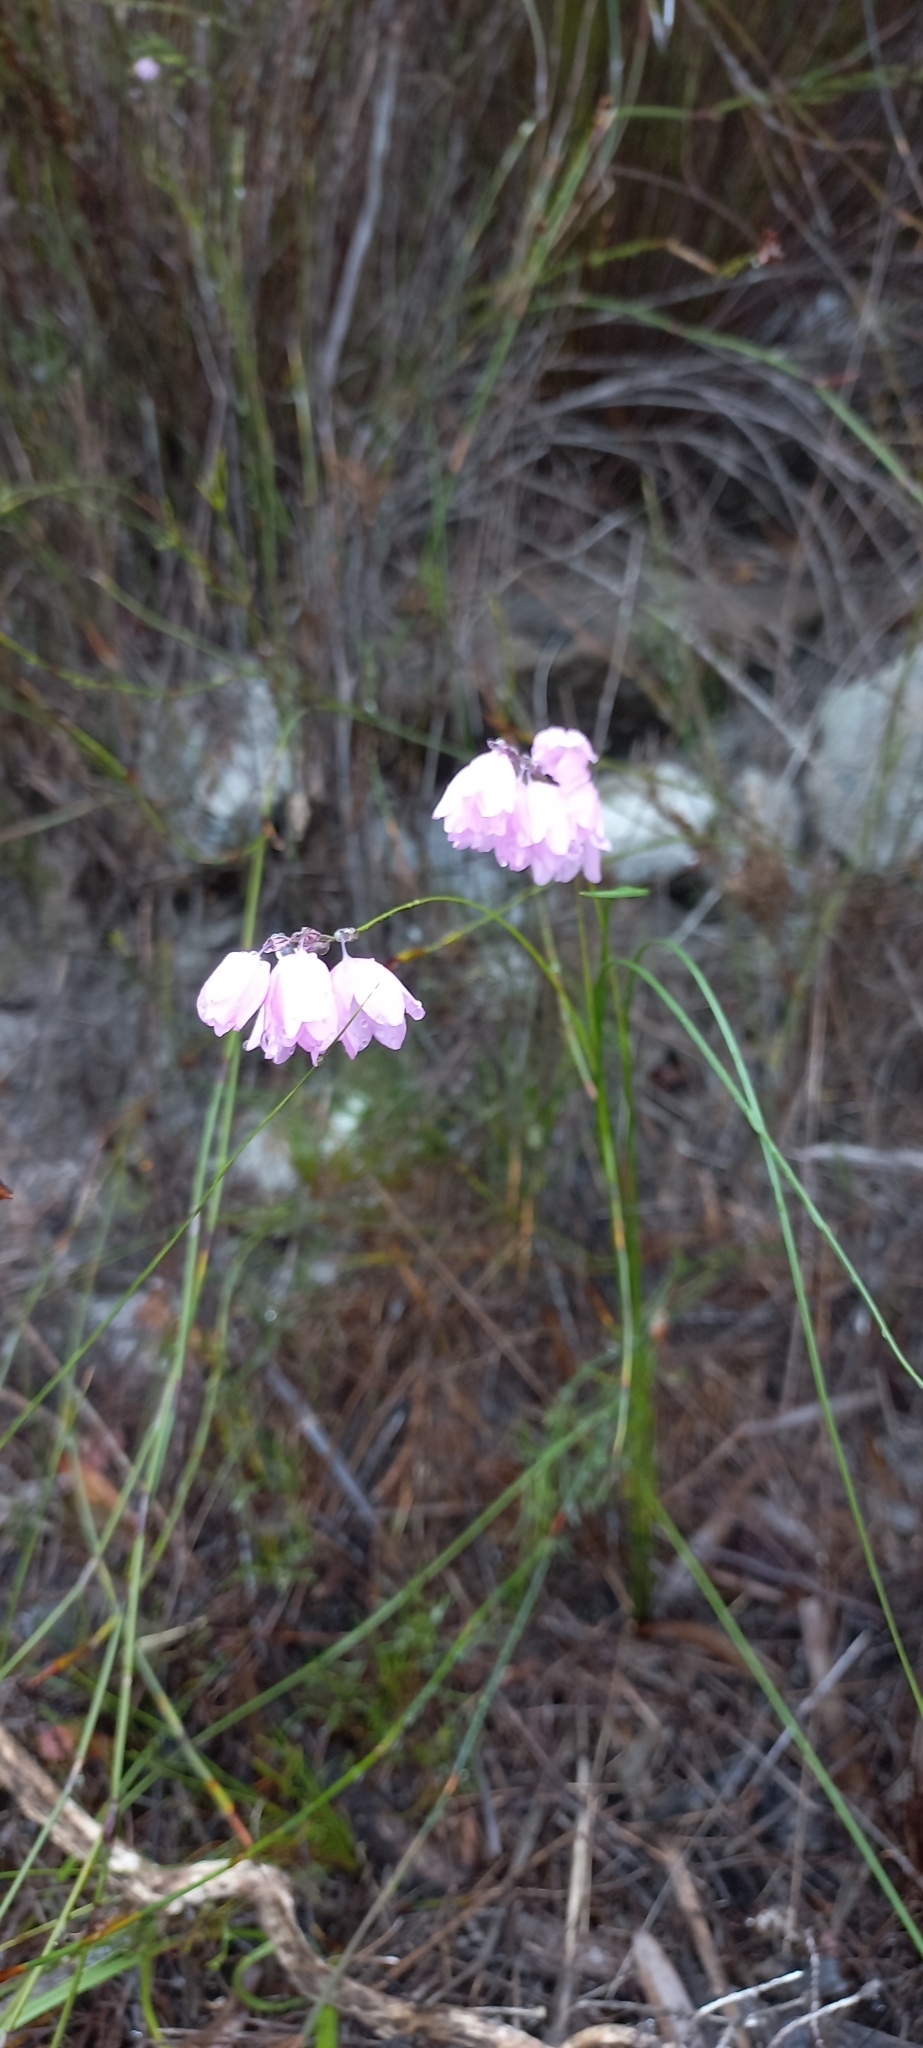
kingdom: Plantae
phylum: Tracheophyta
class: Liliopsida
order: Asparagales
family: Iridaceae
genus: Ixia
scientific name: Ixia micrandra
